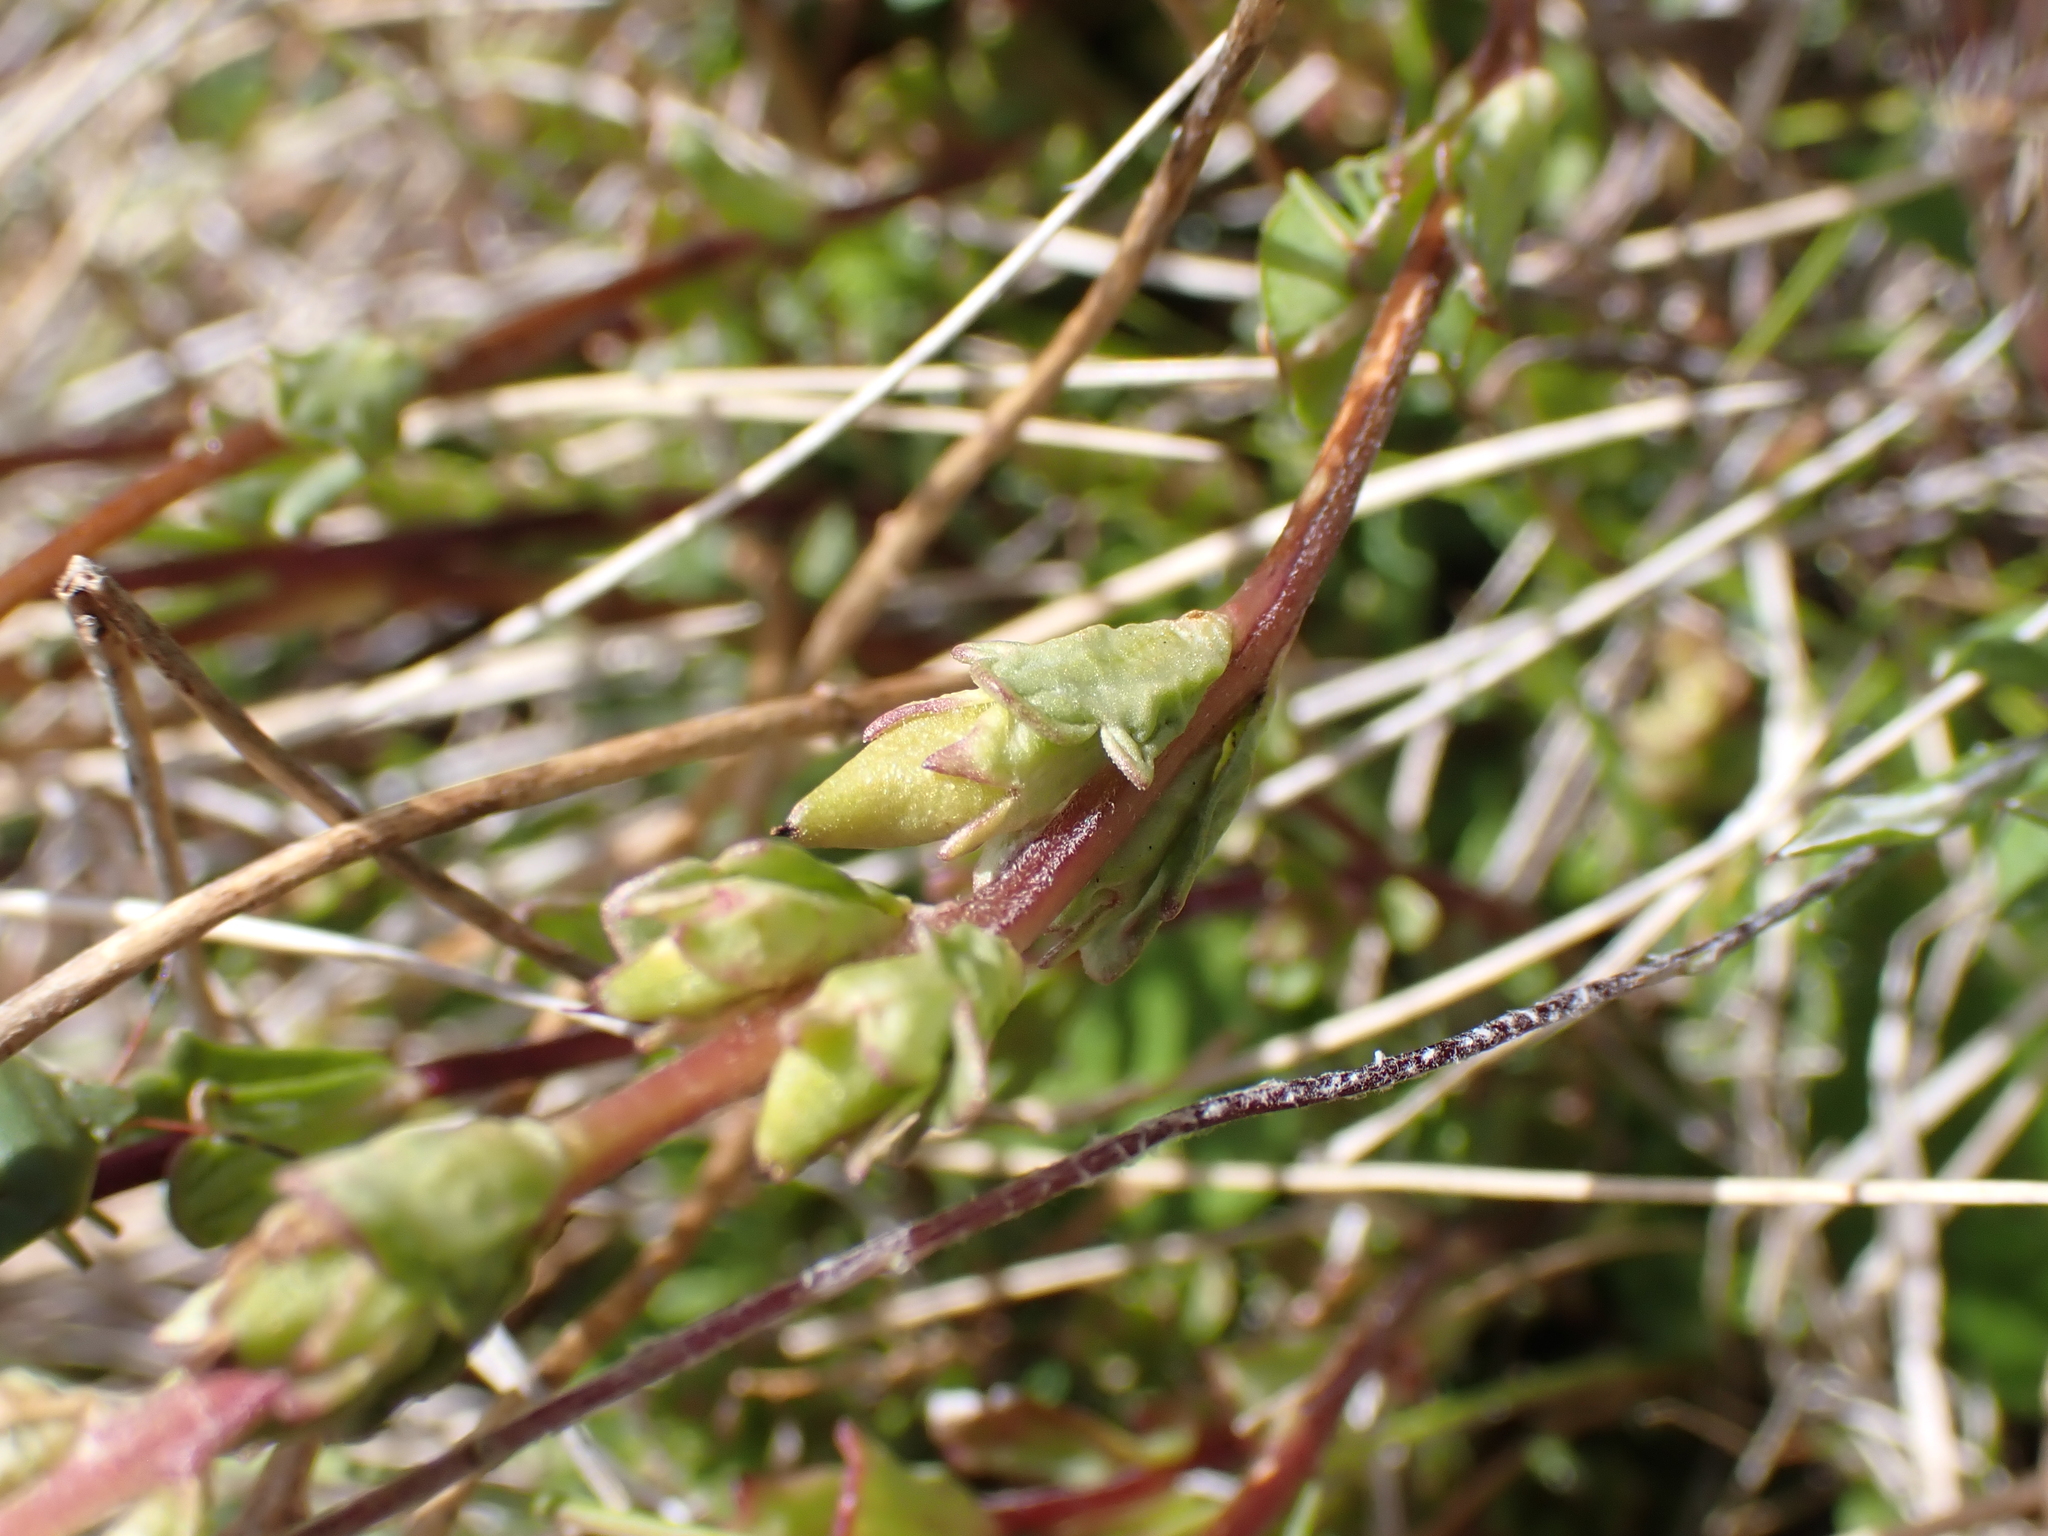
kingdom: Plantae
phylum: Tracheophyta
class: Magnoliopsida
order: Lamiales
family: Orobanchaceae
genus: Euphrasia
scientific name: Euphrasia collina
